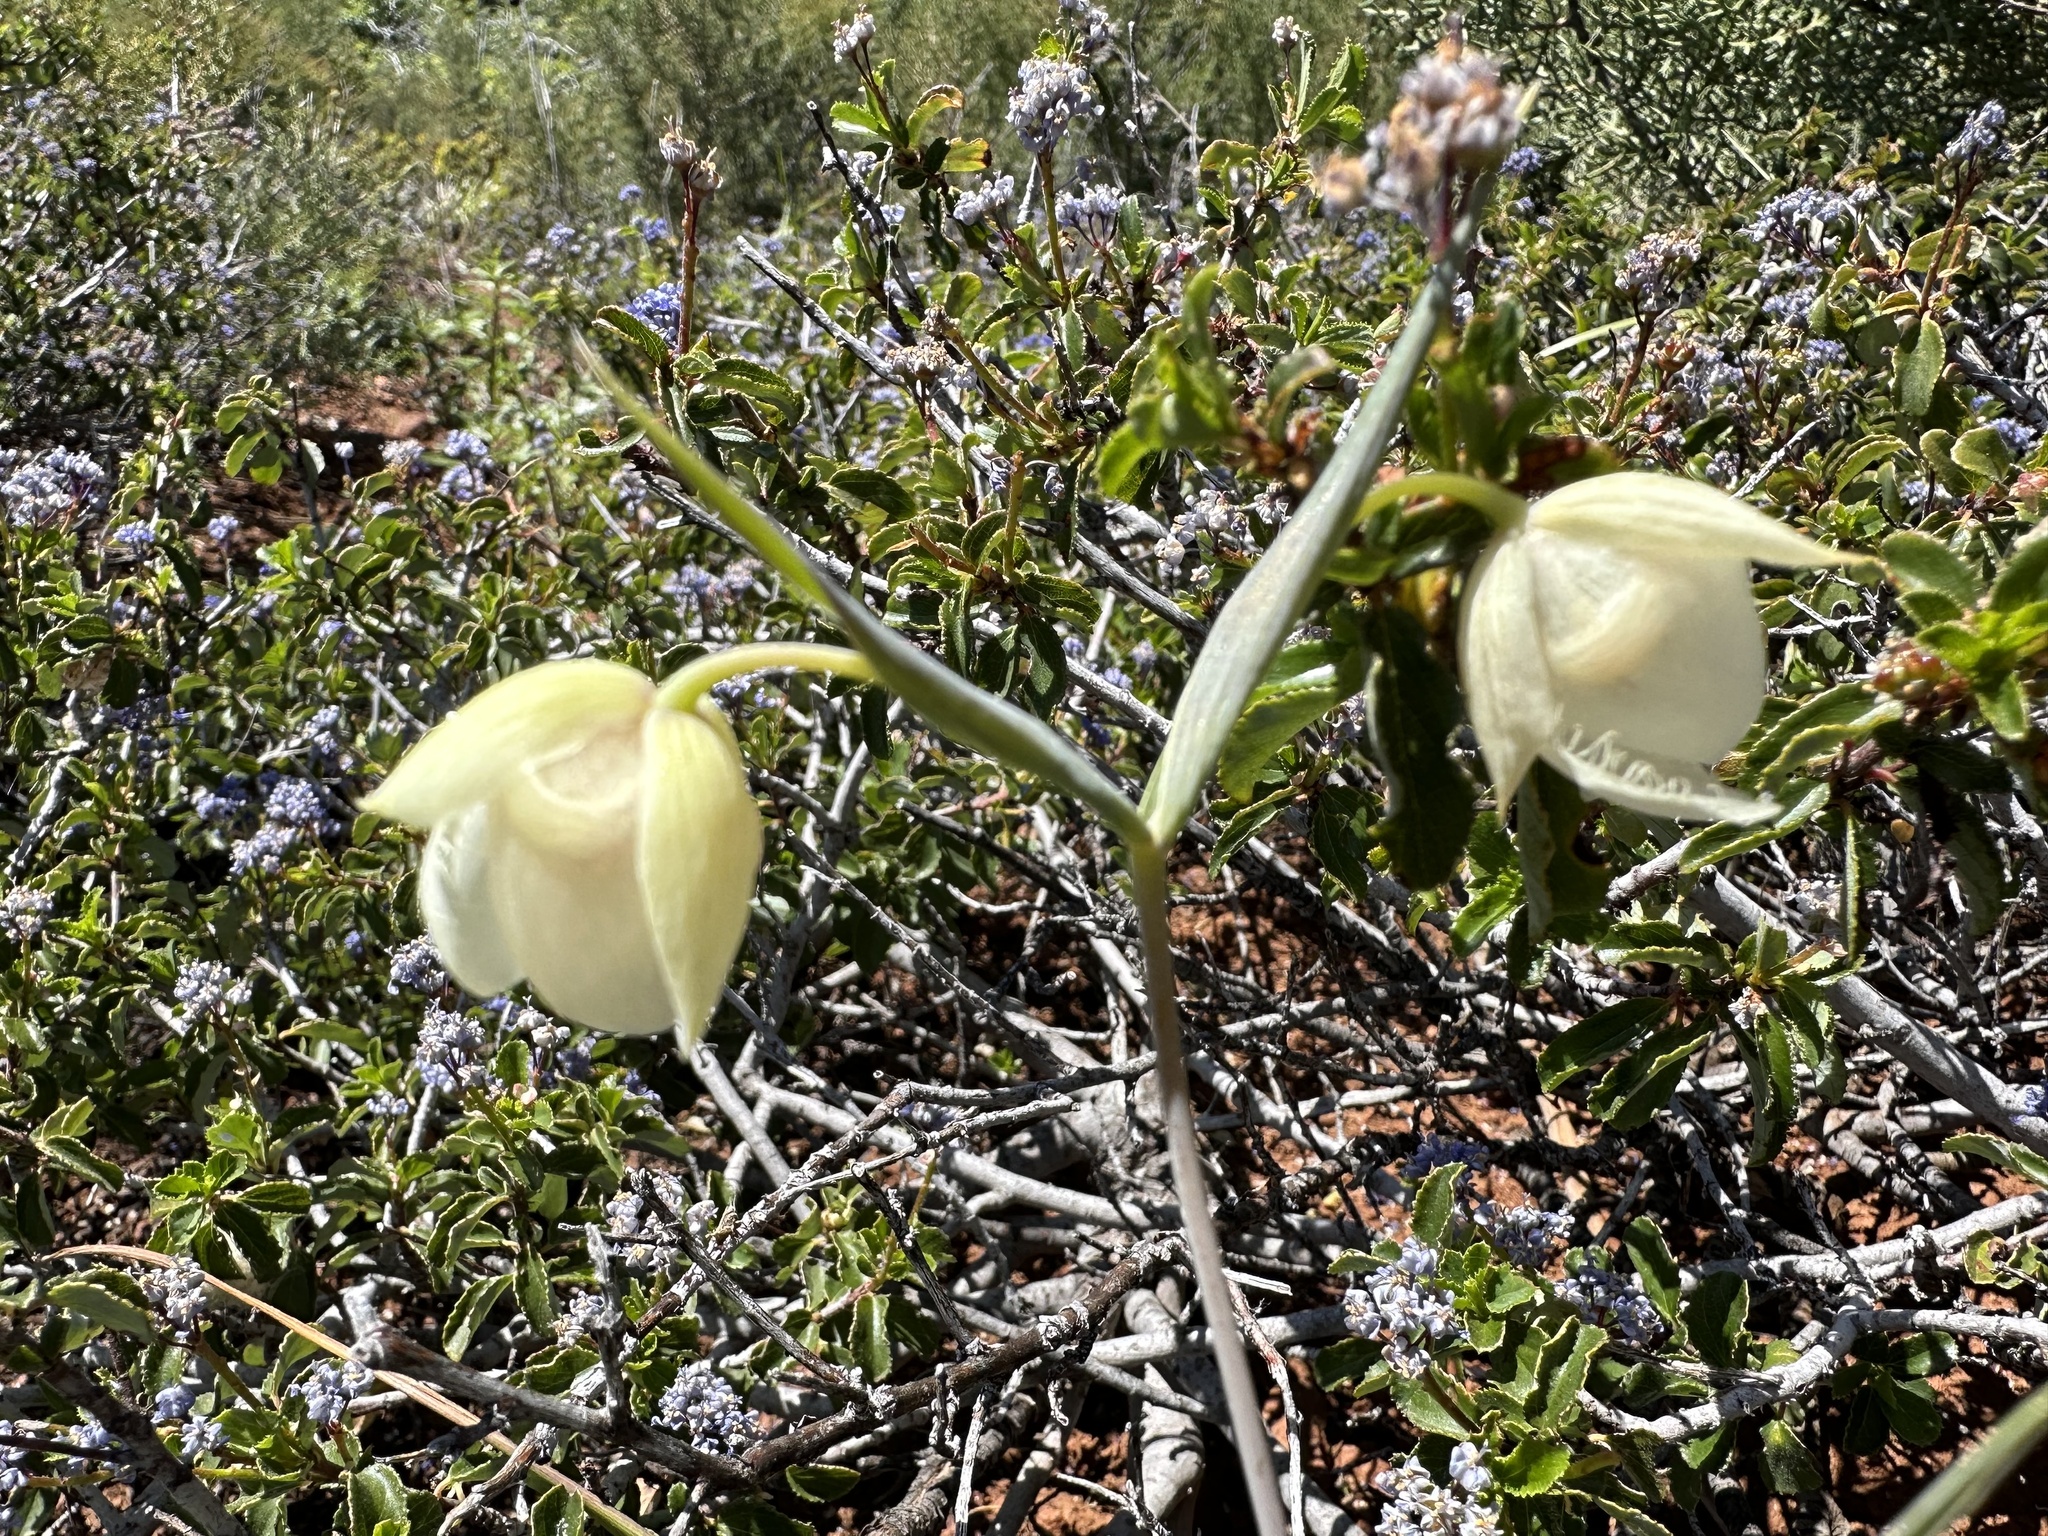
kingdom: Plantae
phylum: Tracheophyta
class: Liliopsida
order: Liliales
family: Liliaceae
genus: Calochortus
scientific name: Calochortus albus
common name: Fairy-lantern
